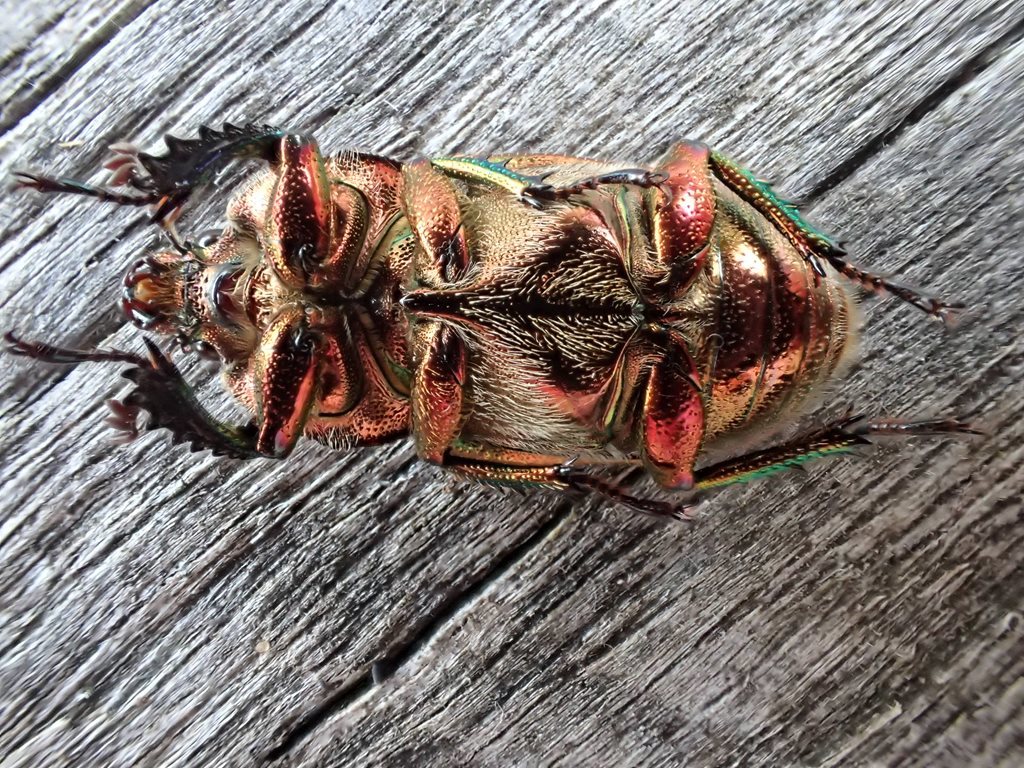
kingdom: Animalia
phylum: Arthropoda
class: Insecta
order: Coleoptera
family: Lucanidae
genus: Lamprima
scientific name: Lamprima aurata
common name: Golden stag beetle
